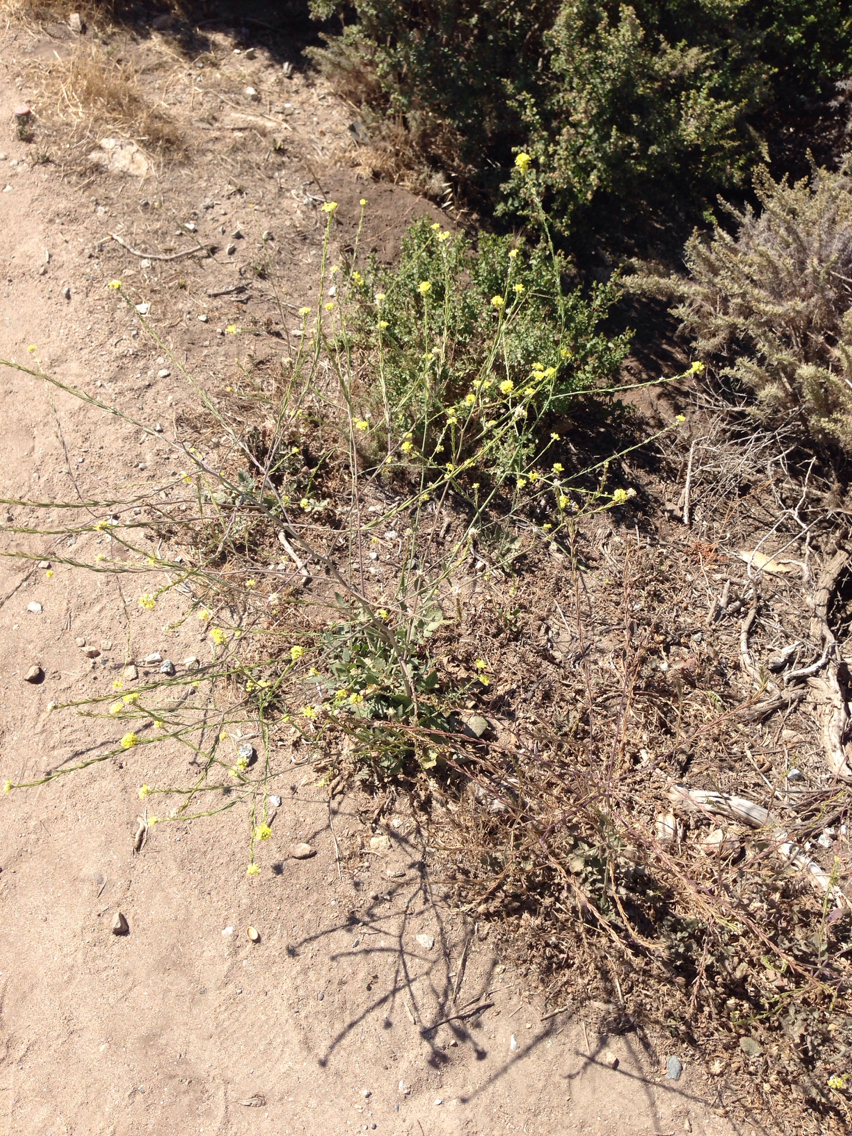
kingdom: Plantae
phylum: Tracheophyta
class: Magnoliopsida
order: Brassicales
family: Brassicaceae
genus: Hirschfeldia
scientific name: Hirschfeldia incana
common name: Hoary mustard
